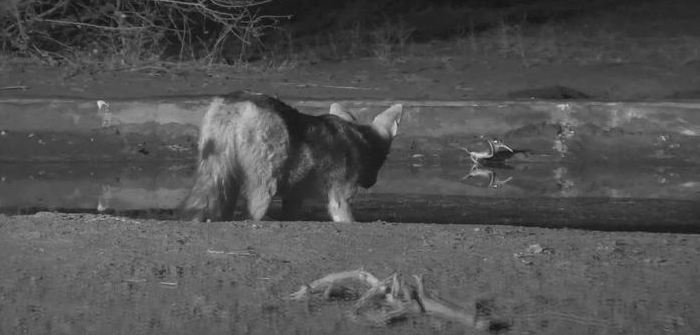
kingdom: Animalia
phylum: Chordata
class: Mammalia
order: Carnivora
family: Canidae
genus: Lupulella
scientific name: Lupulella
